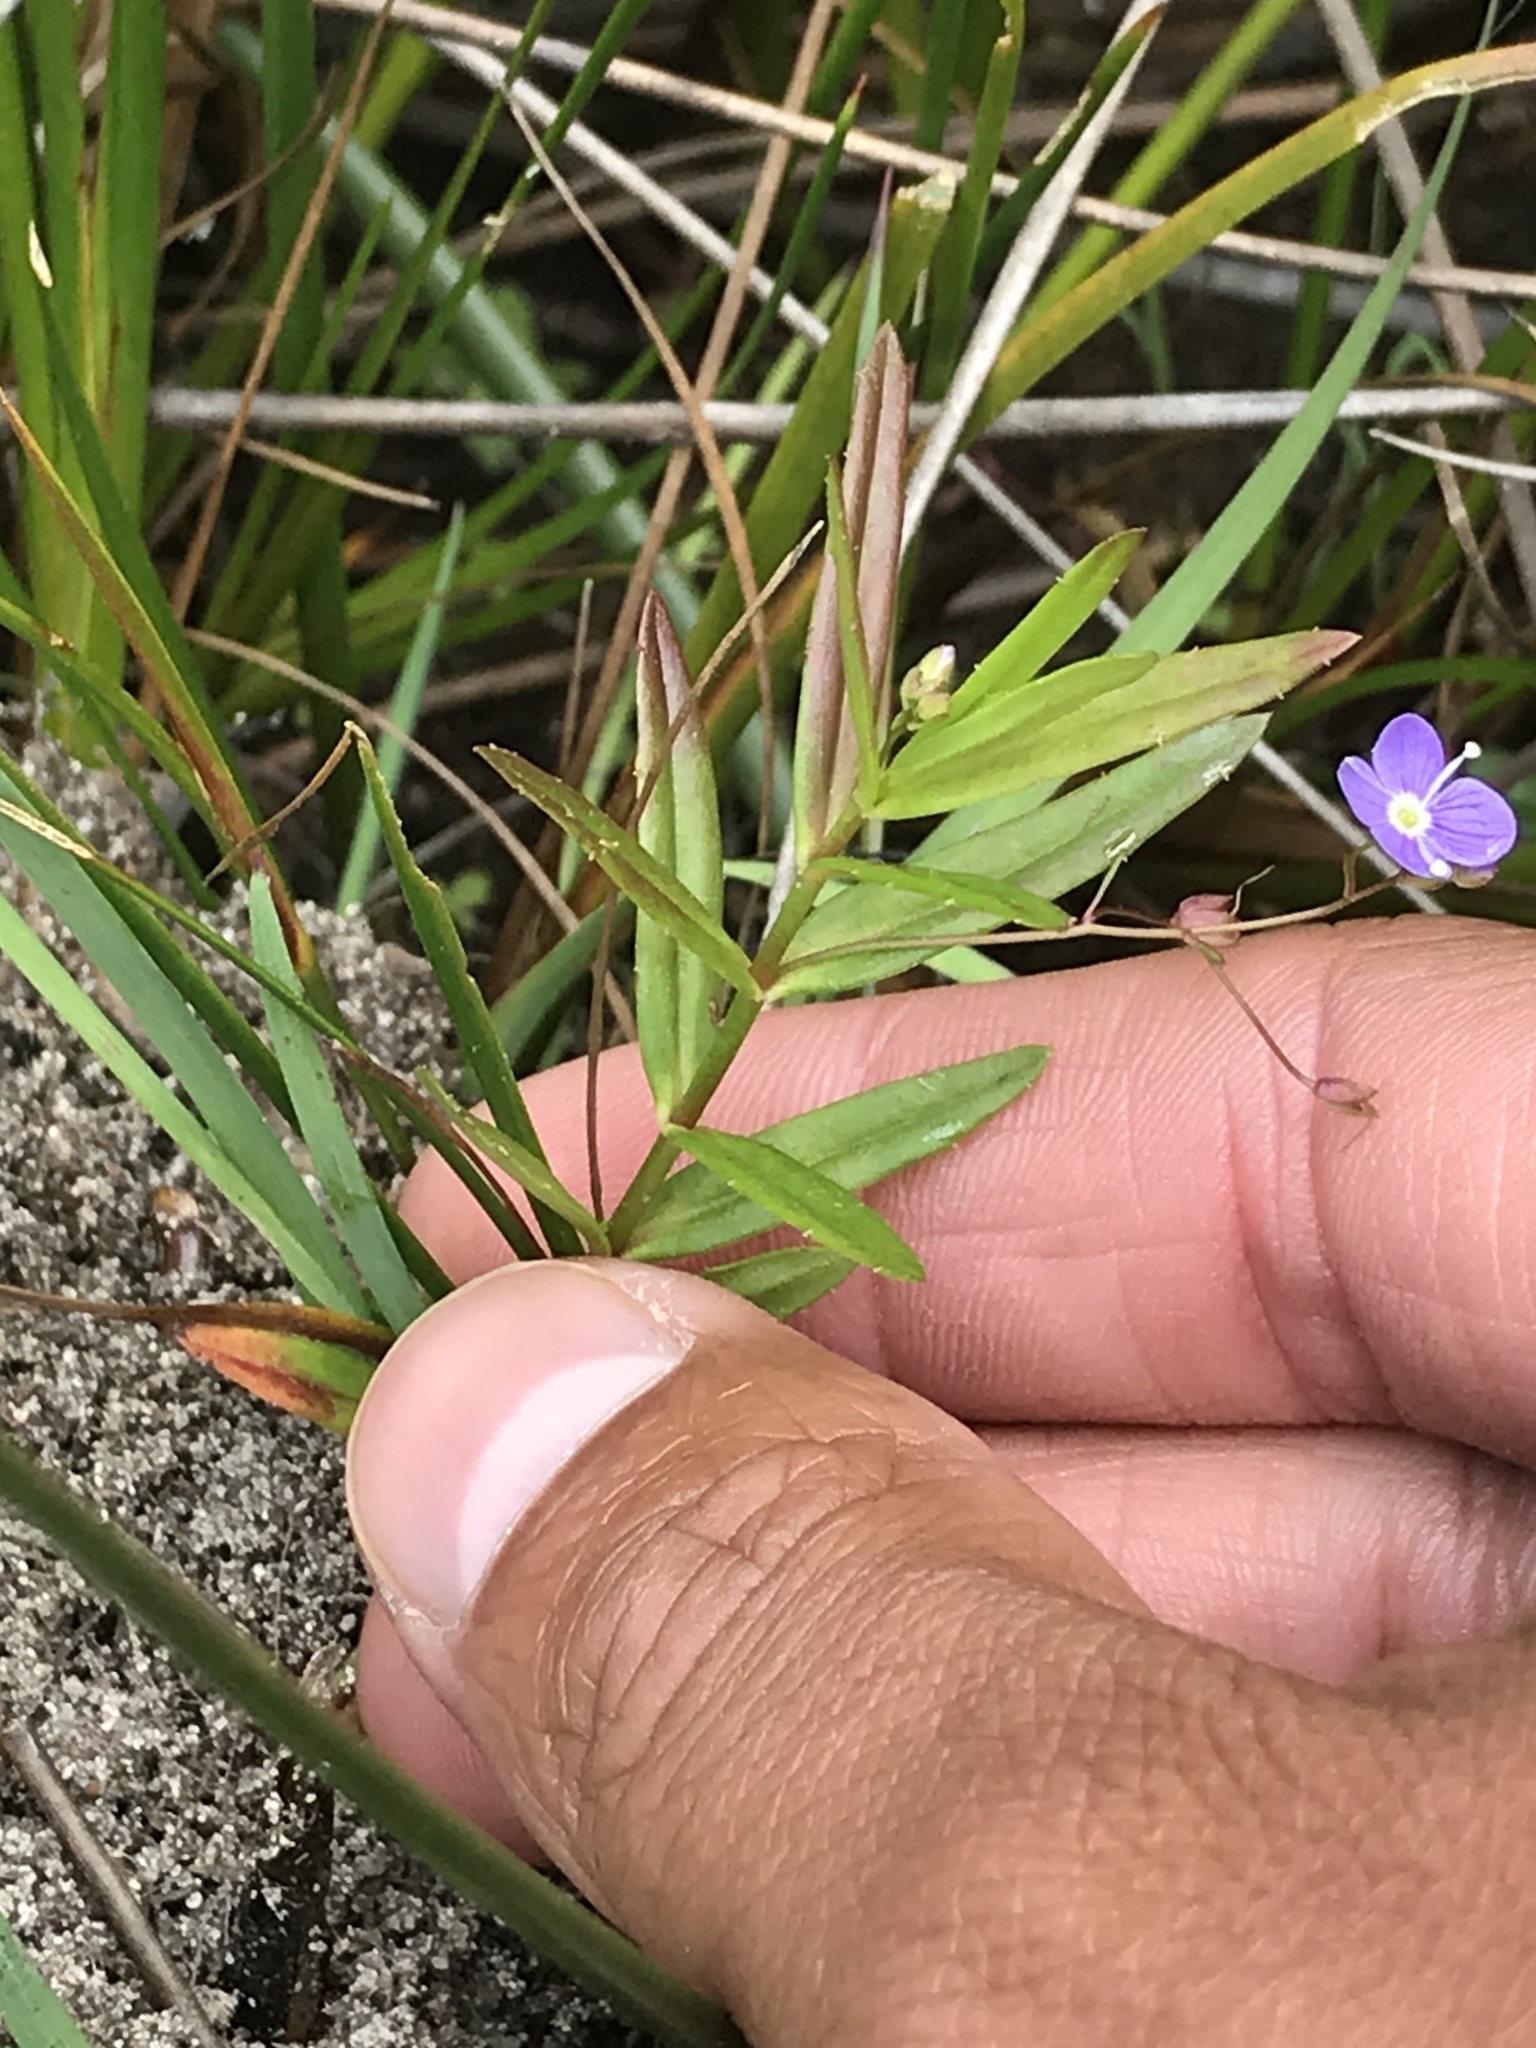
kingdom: Plantae
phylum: Tracheophyta
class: Magnoliopsida
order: Lamiales
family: Plantaginaceae
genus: Veronica
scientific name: Veronica scutellata
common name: Marsh speedwell
